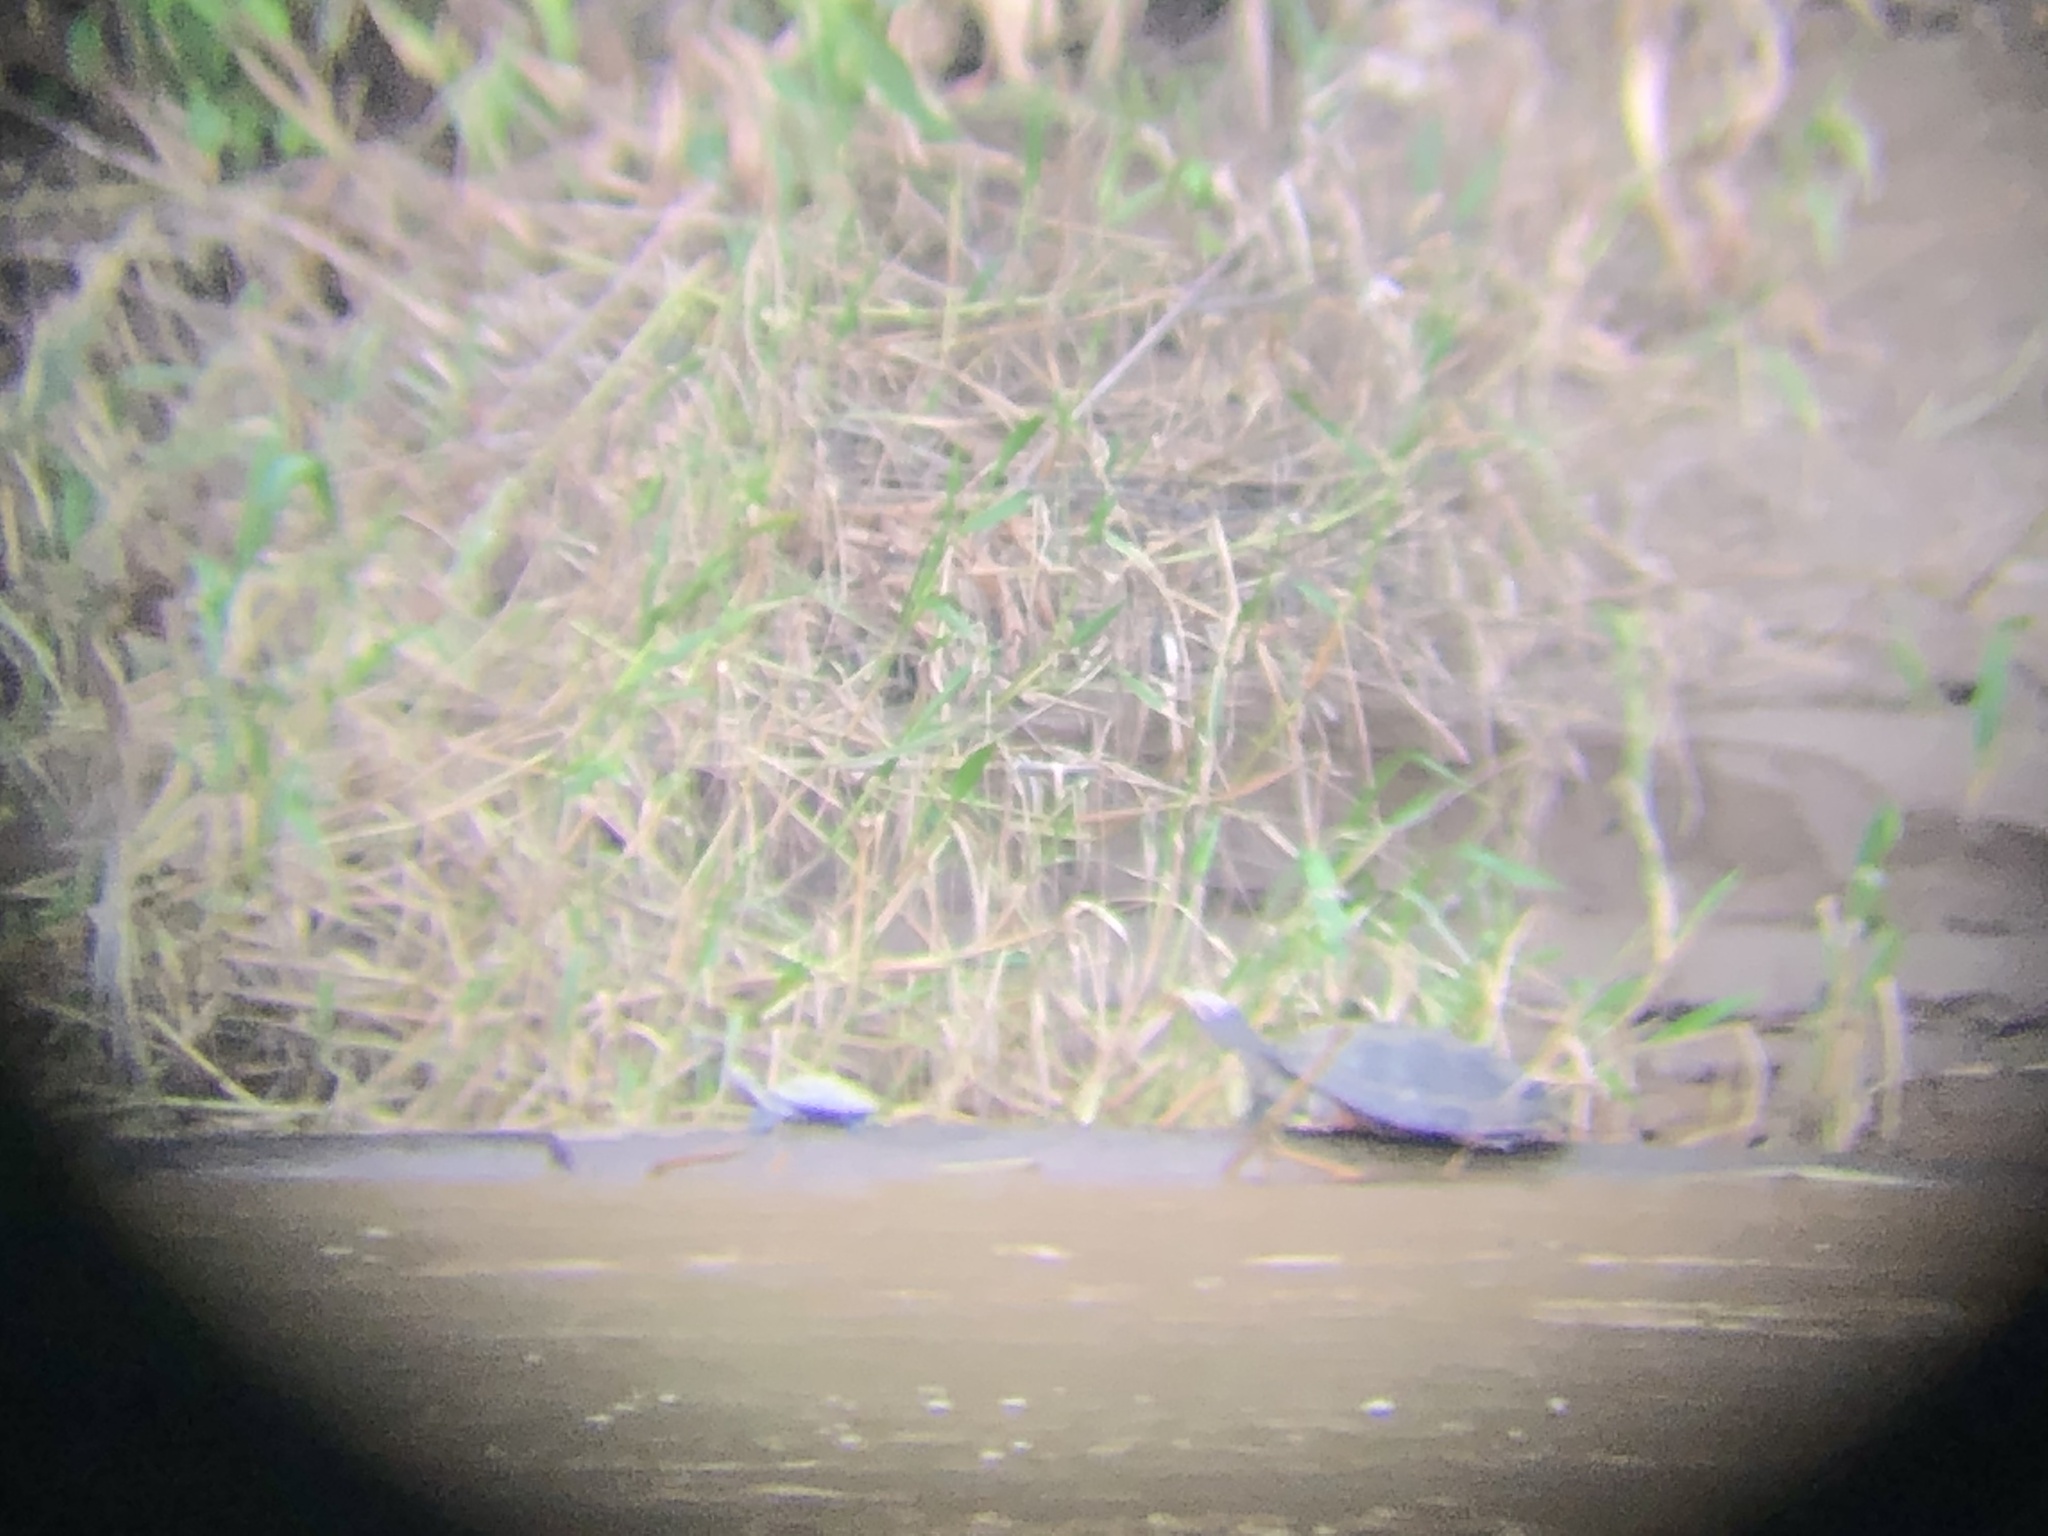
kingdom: Animalia
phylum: Chordata
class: Testudines
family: Podocnemididae
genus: Podocnemis
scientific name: Podocnemis unifilis
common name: Yellow-spotted amazon river turtle
